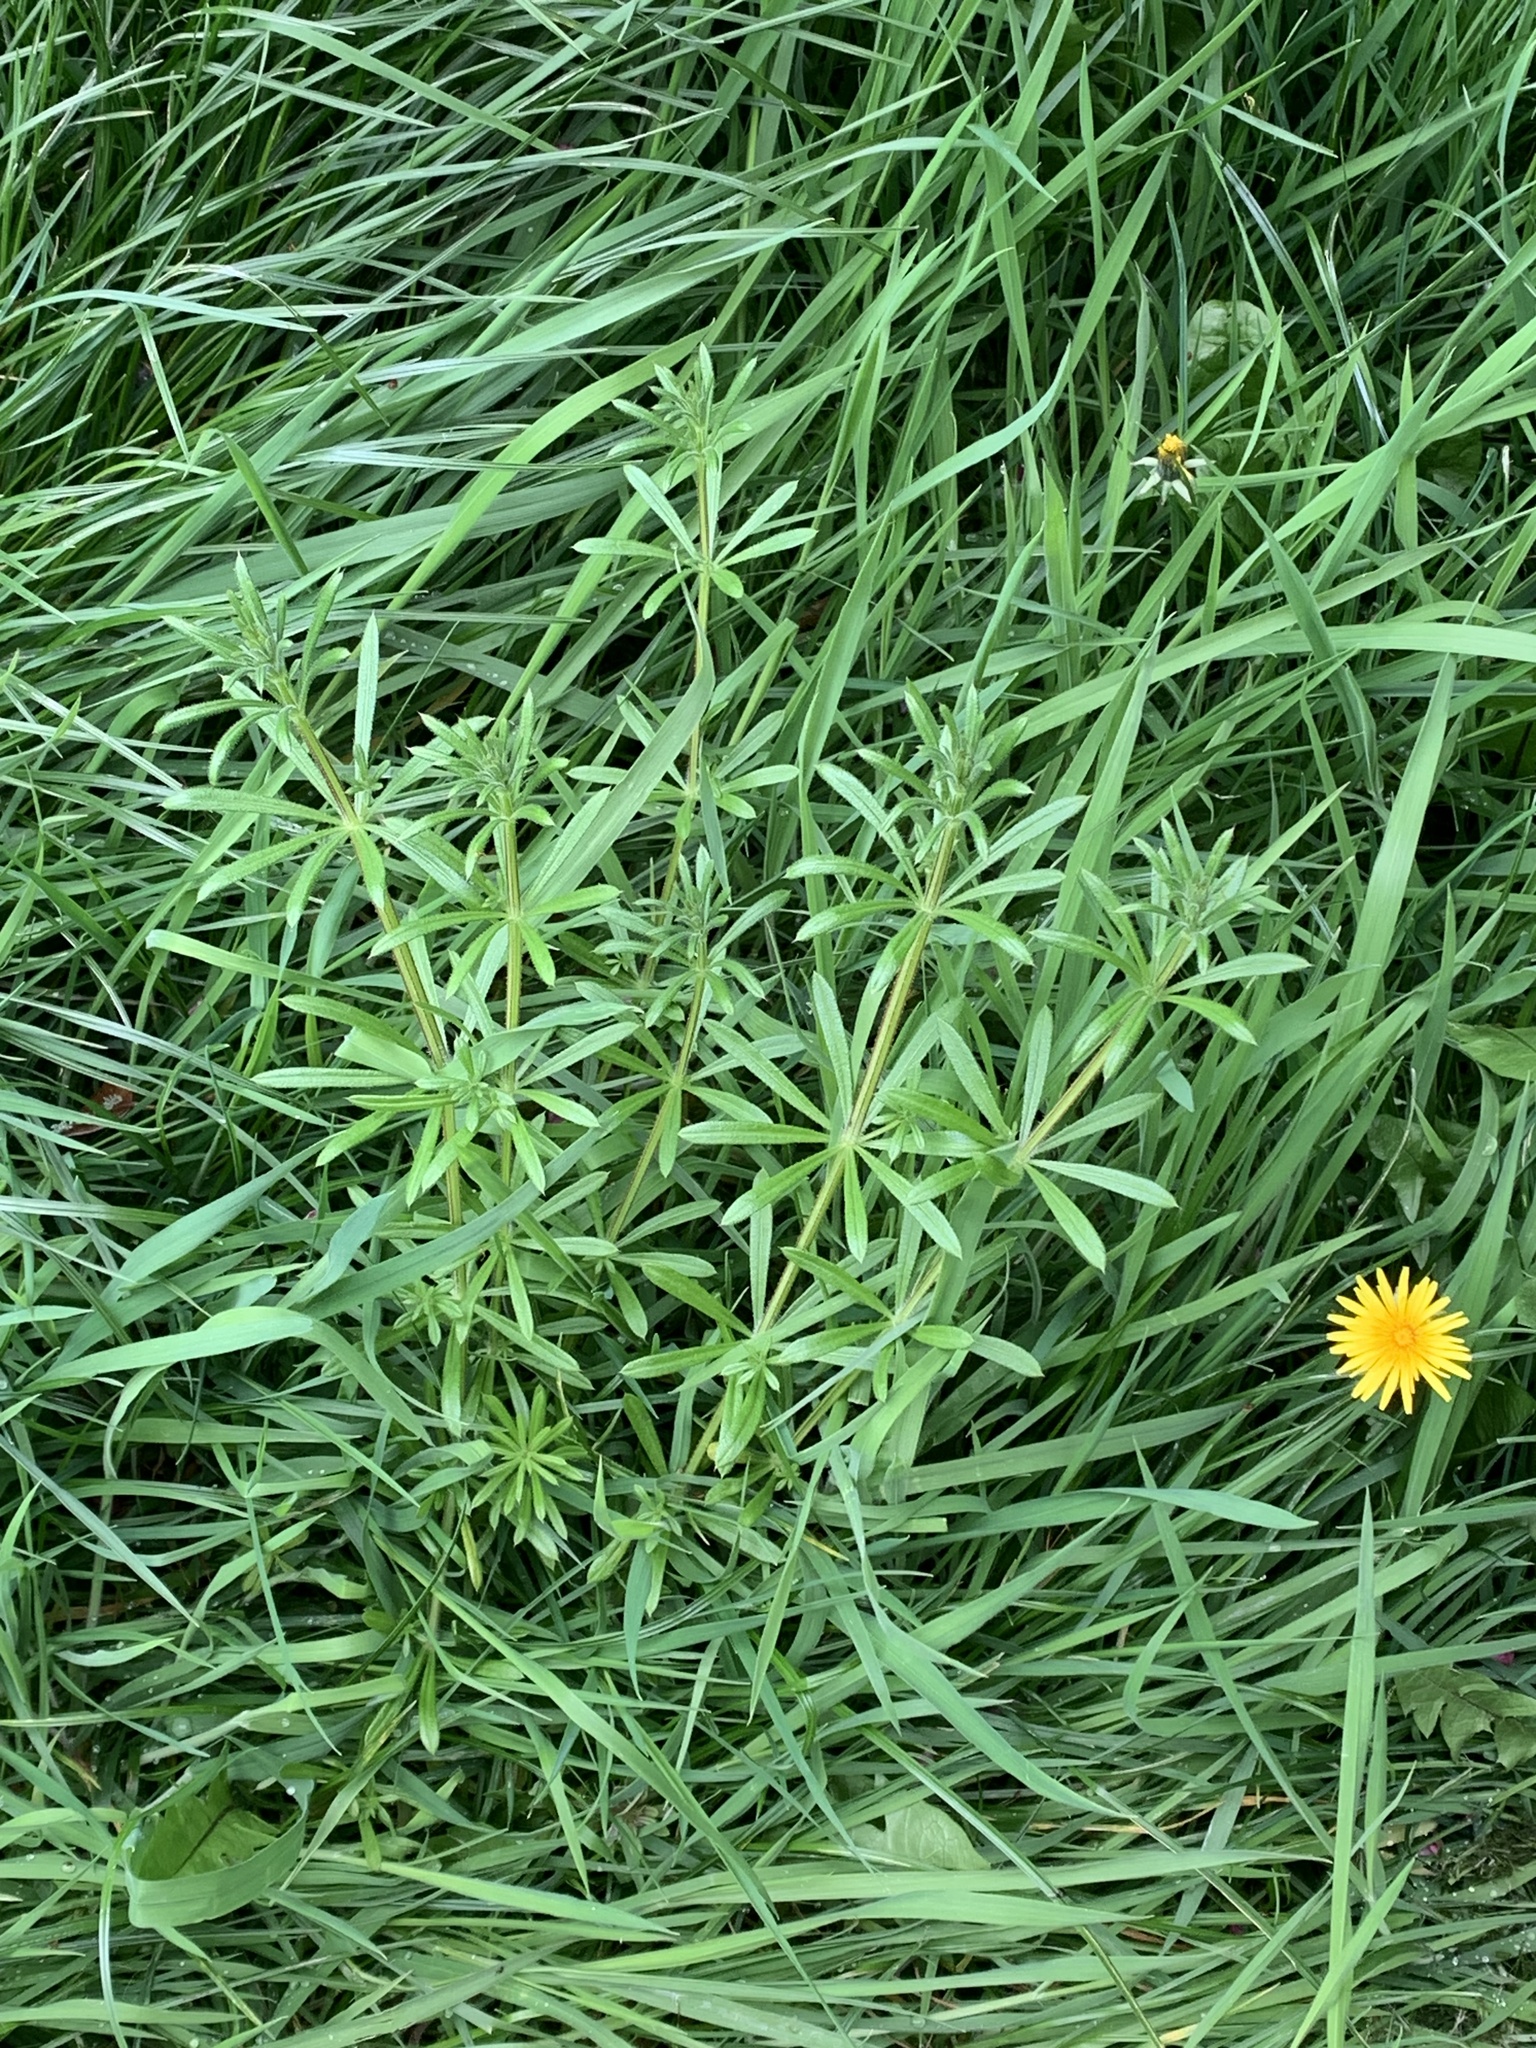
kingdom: Plantae
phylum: Tracheophyta
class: Magnoliopsida
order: Gentianales
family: Rubiaceae
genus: Galium
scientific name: Galium aparine
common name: Cleavers
